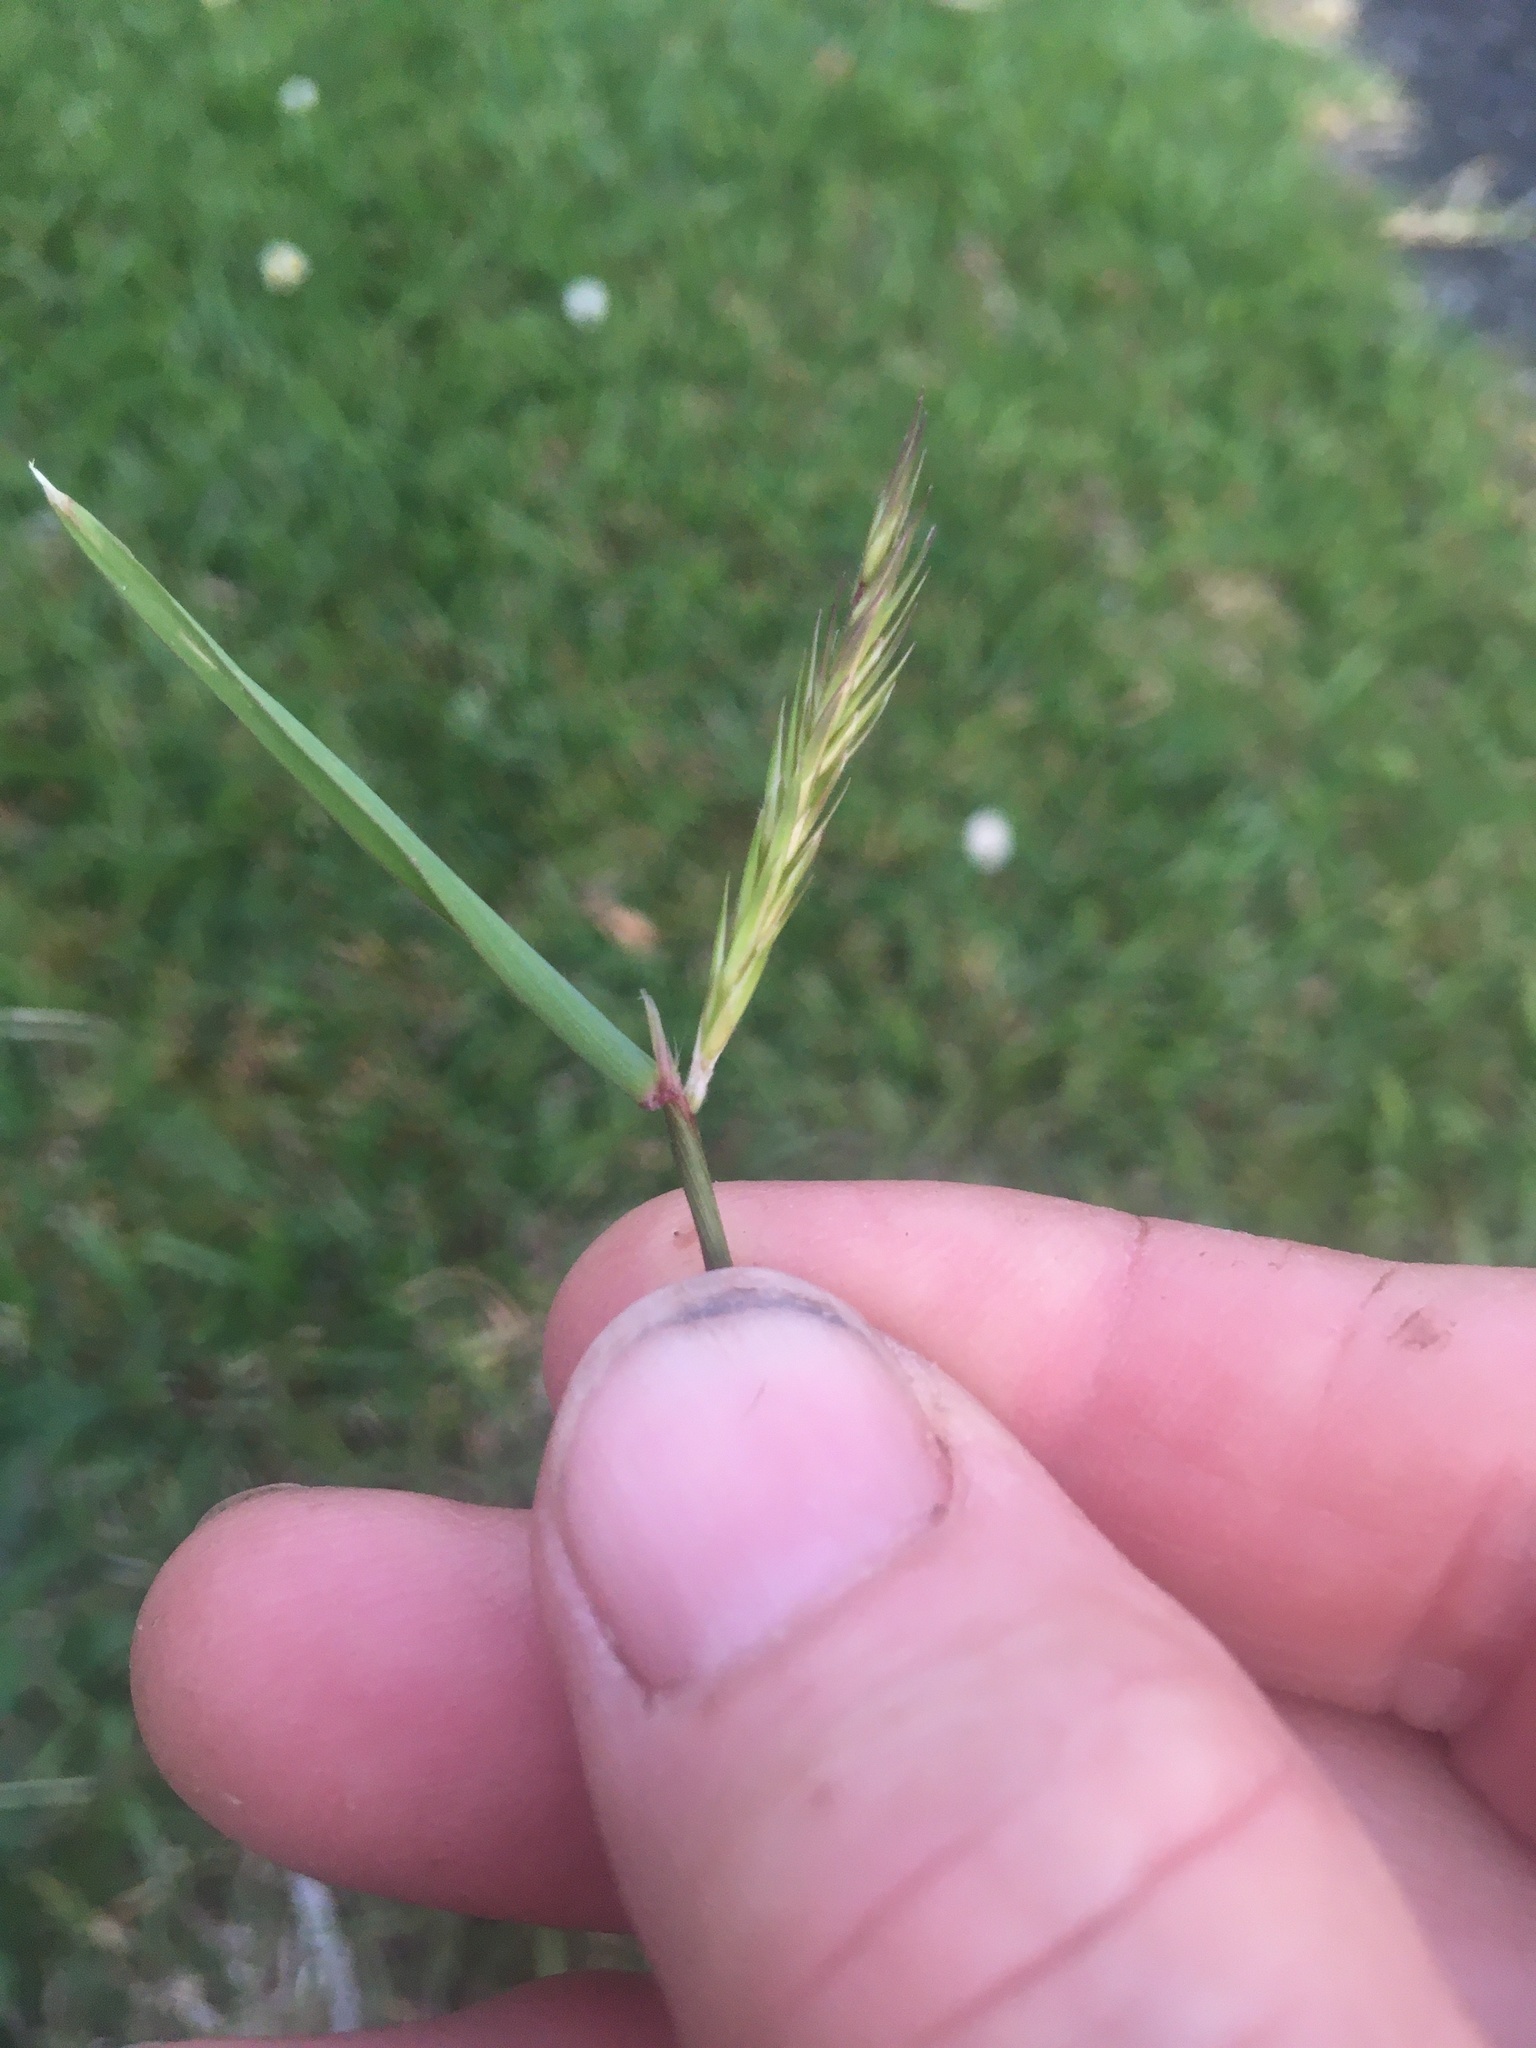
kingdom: Plantae
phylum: Tracheophyta
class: Liliopsida
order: Poales
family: Poaceae
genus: Anthoxanthum
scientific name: Anthoxanthum odoratum
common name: Sweet vernalgrass
